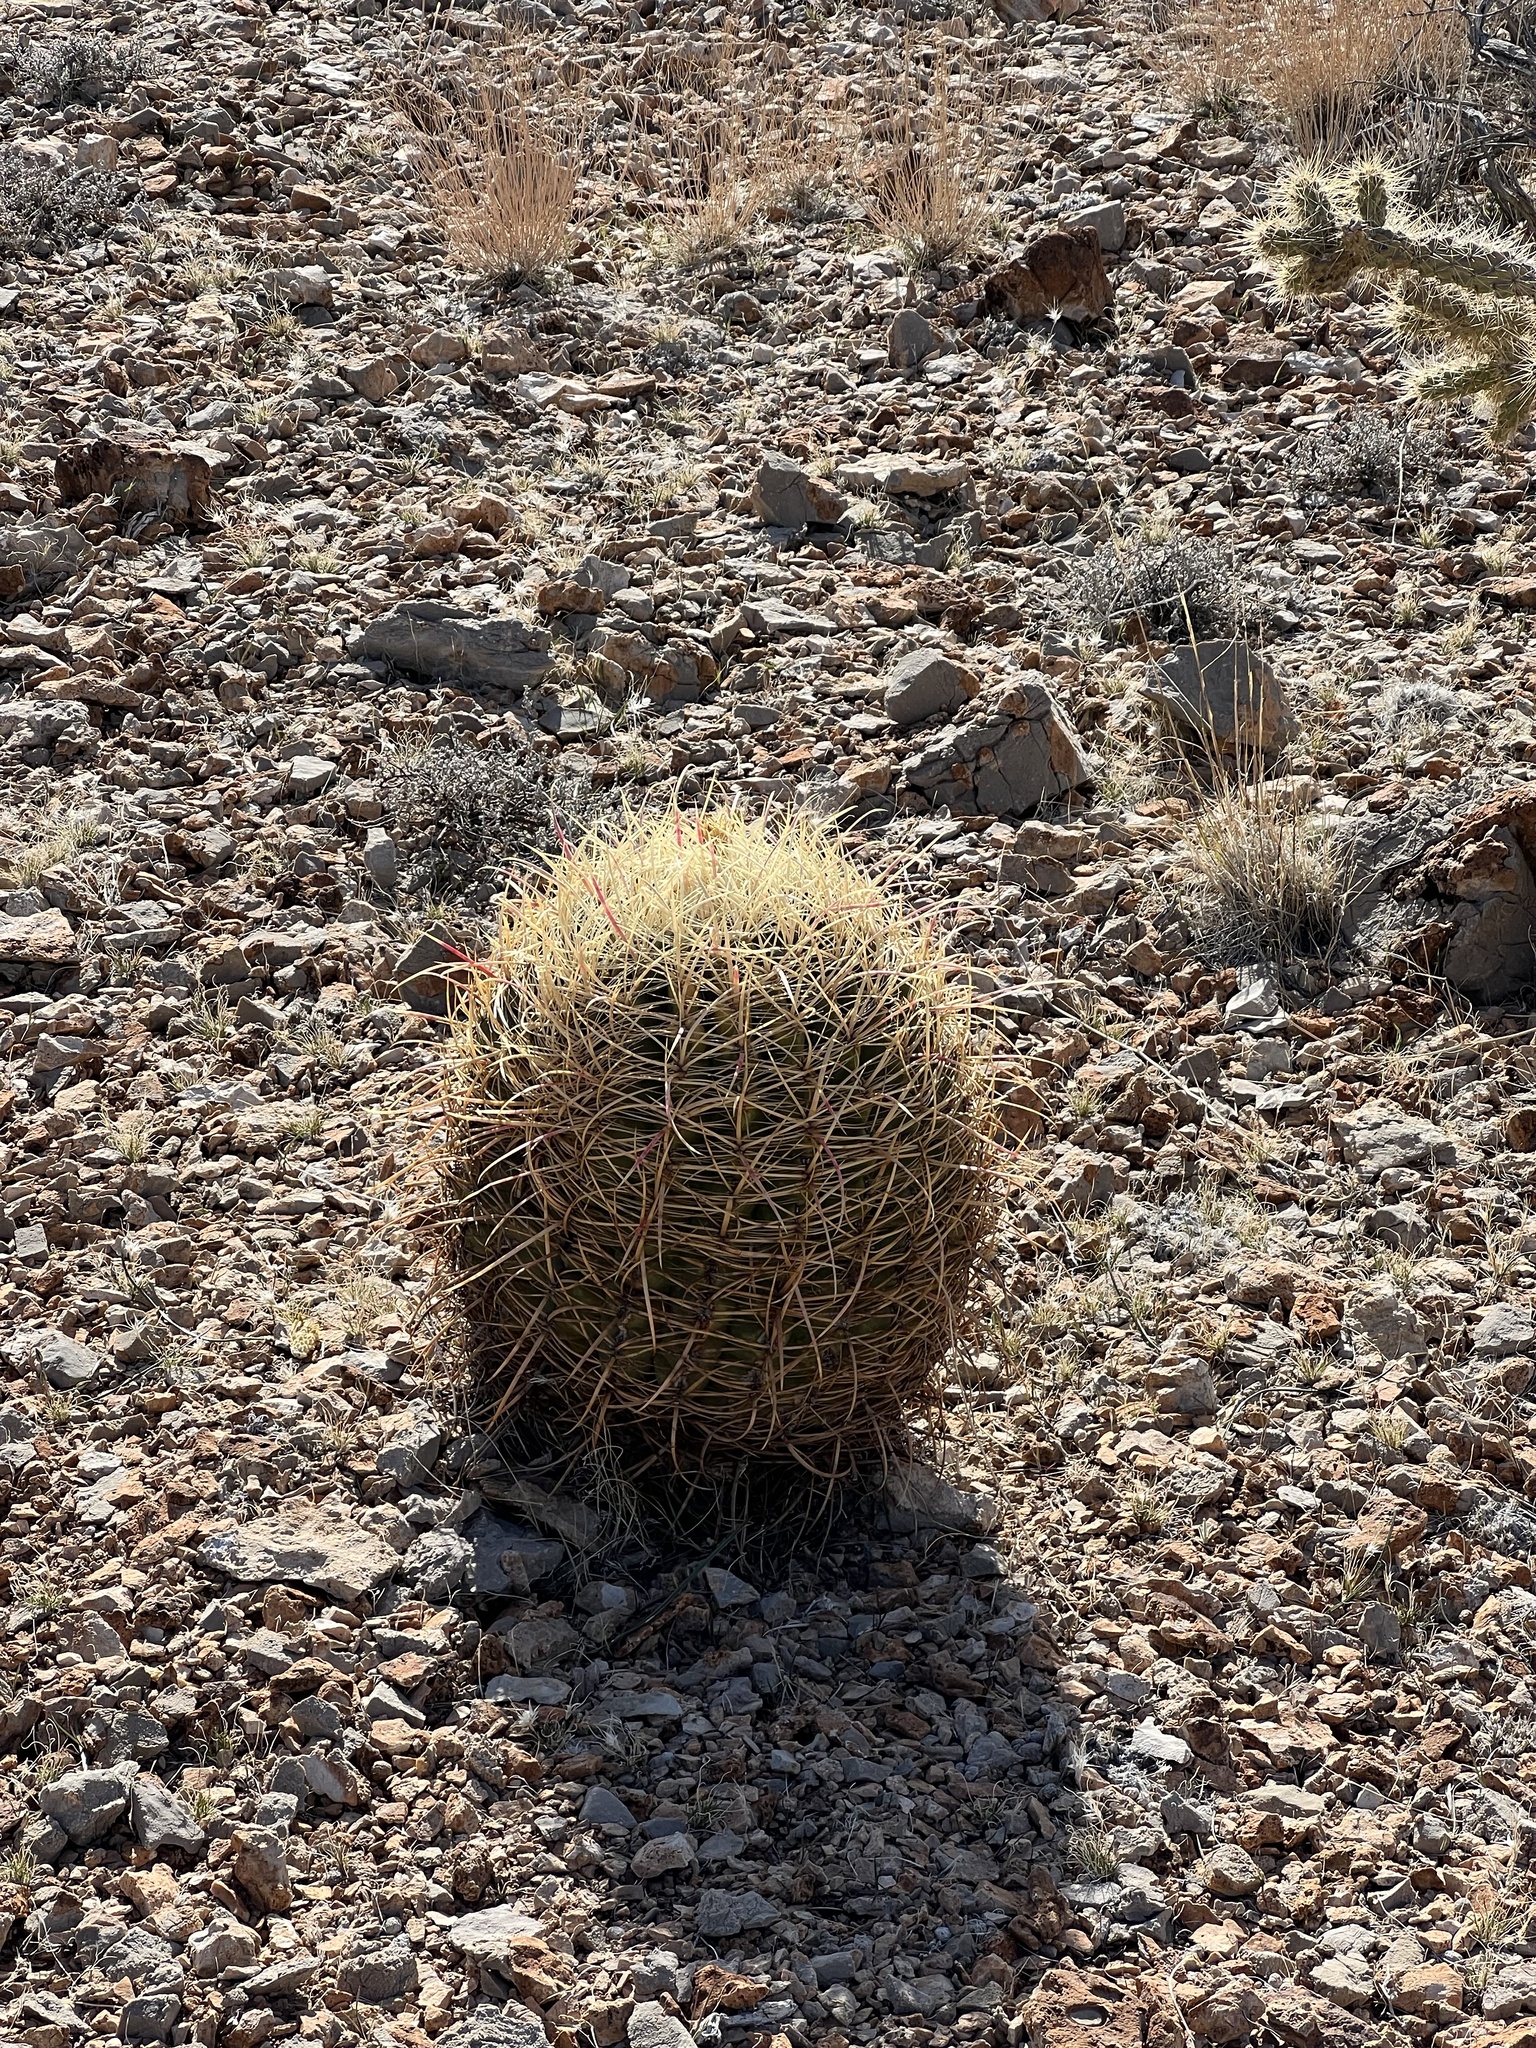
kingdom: Plantae
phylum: Tracheophyta
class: Magnoliopsida
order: Caryophyllales
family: Cactaceae
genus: Ferocactus
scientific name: Ferocactus cylindraceus
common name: California barrel cactus
